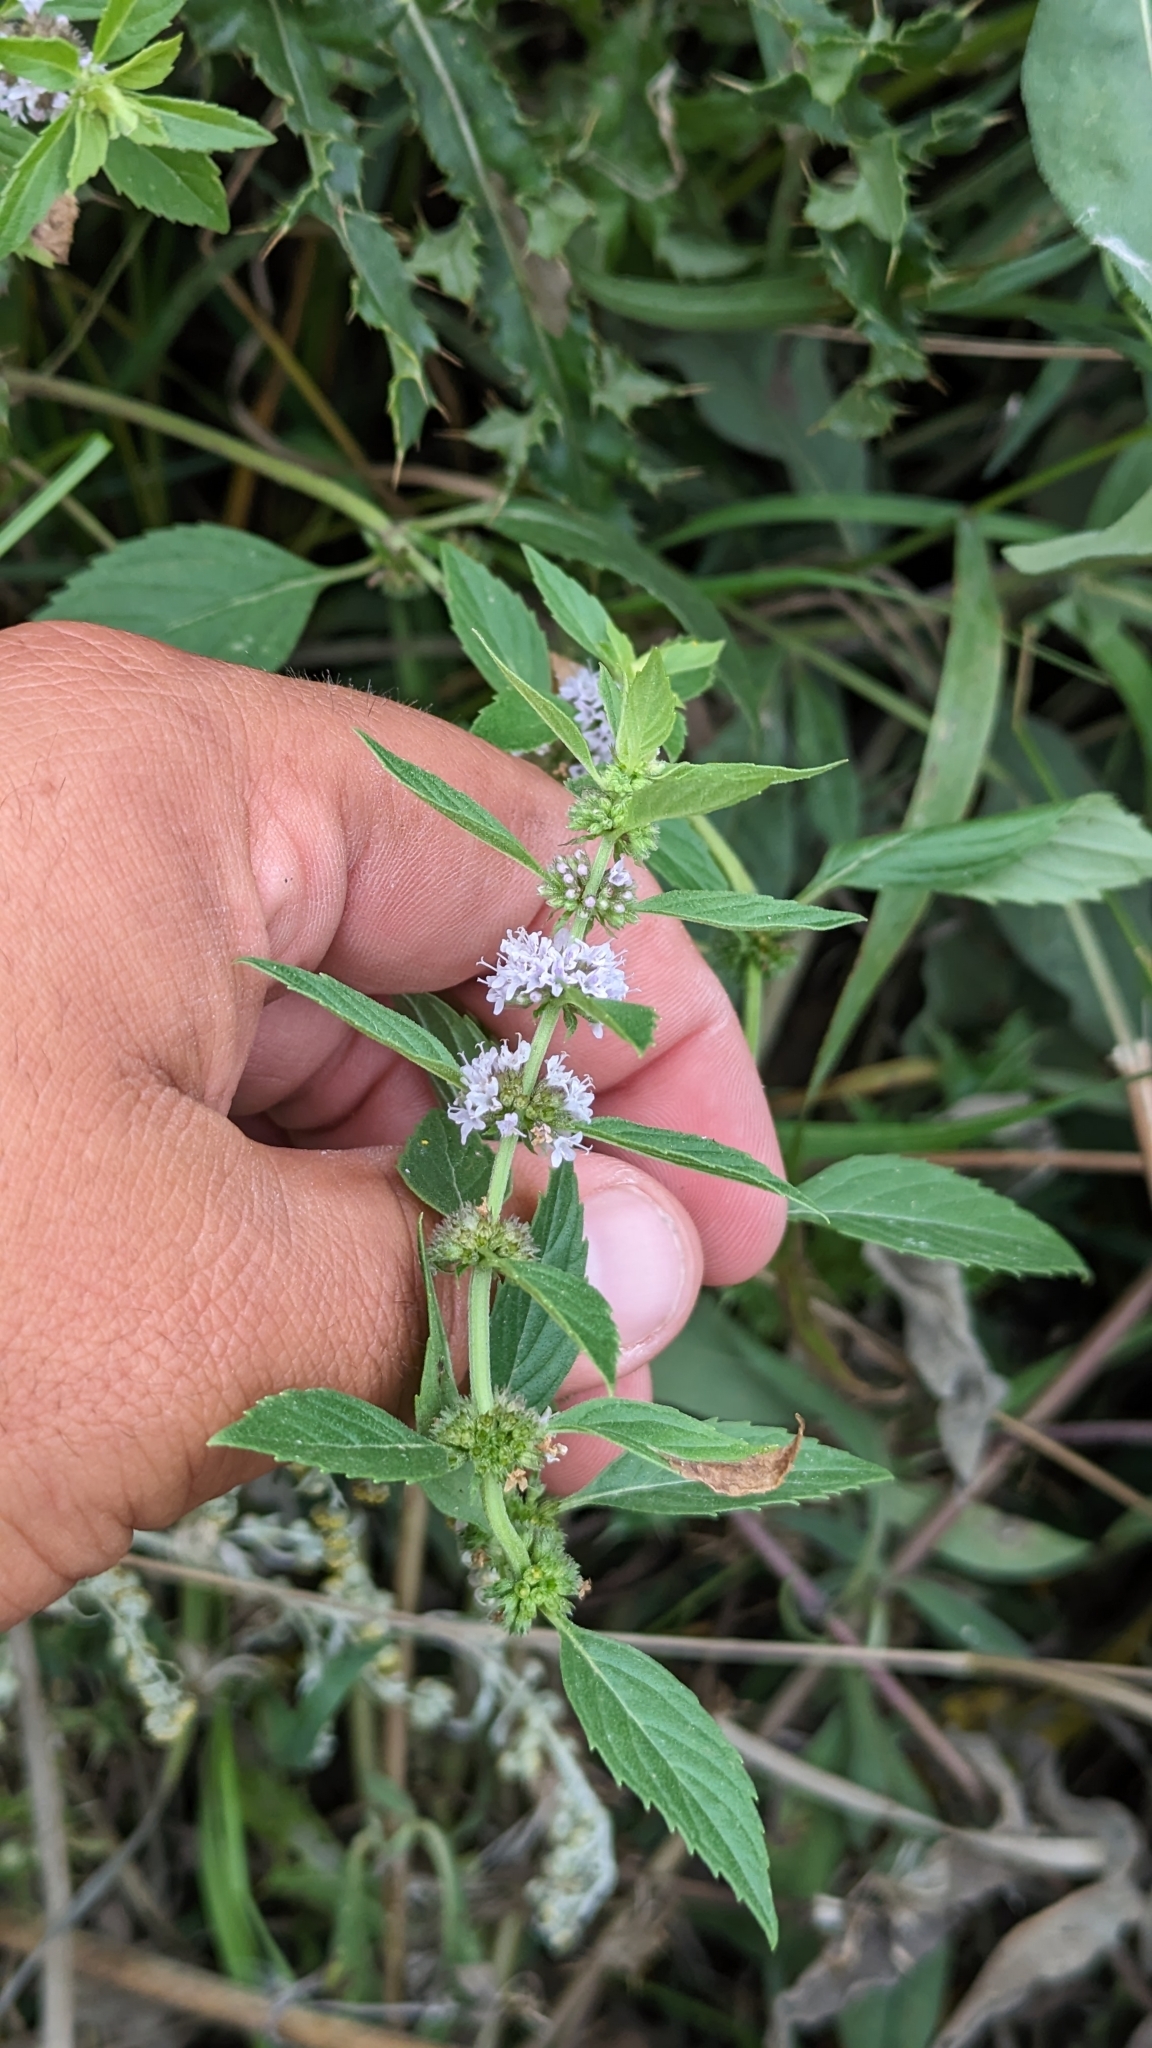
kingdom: Plantae
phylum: Tracheophyta
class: Magnoliopsida
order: Lamiales
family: Lamiaceae
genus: Mentha
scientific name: Mentha canadensis
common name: American corn mint
